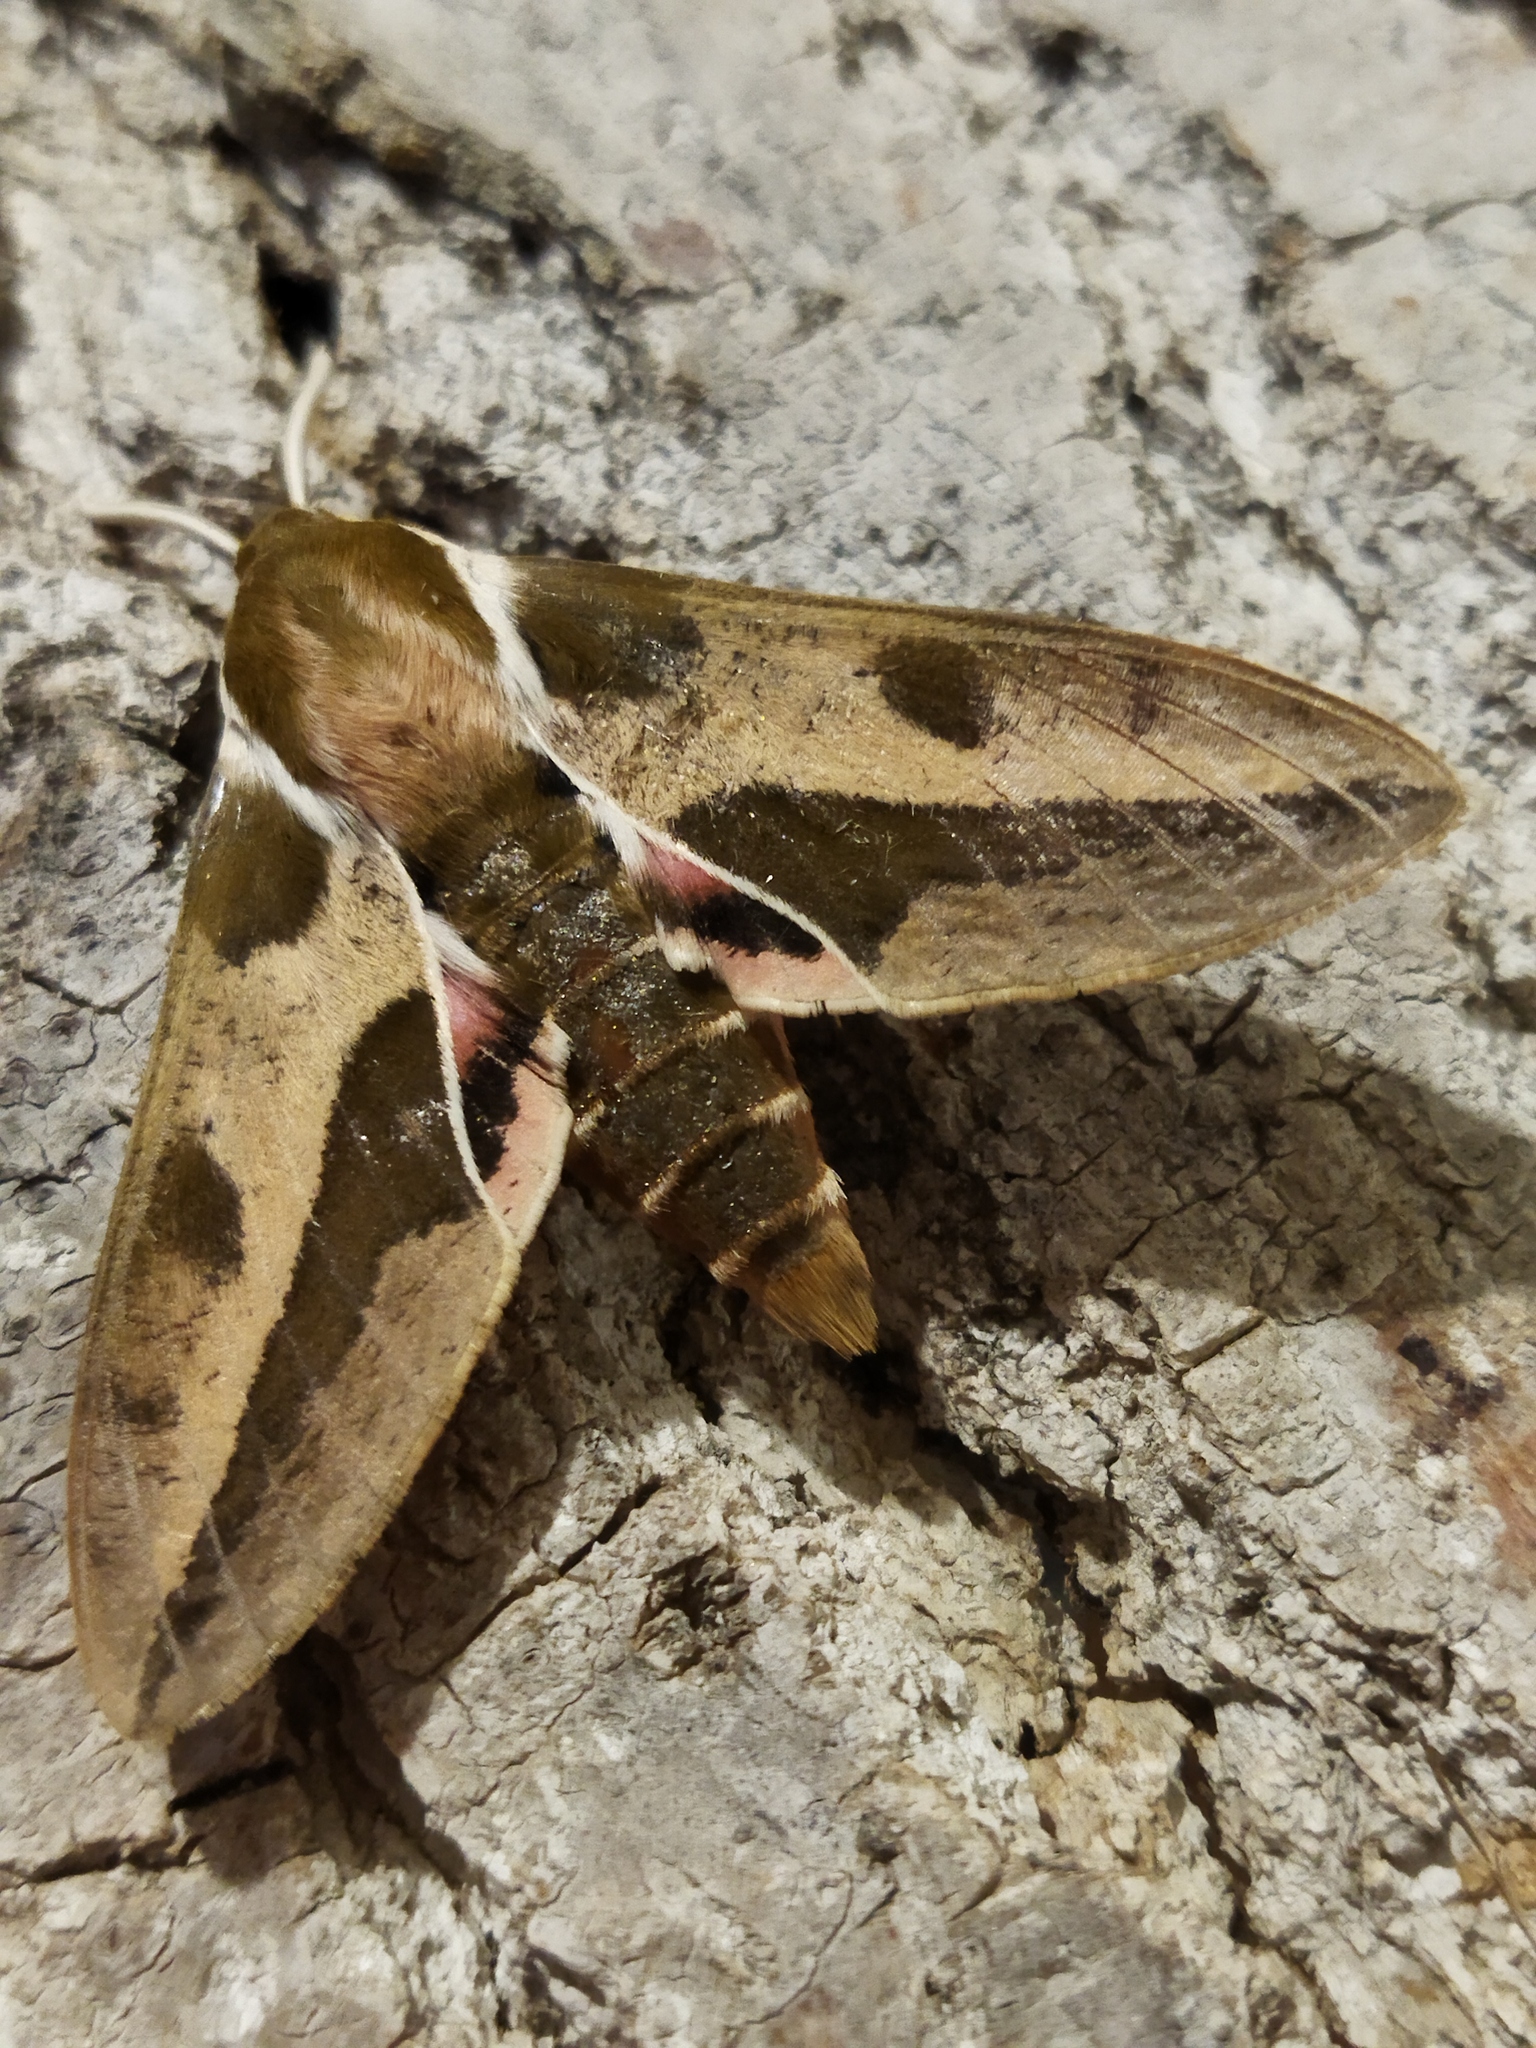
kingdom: Animalia
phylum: Arthropoda
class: Insecta
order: Lepidoptera
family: Sphingidae
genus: Hyles
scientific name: Hyles euphorbiae
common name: Spurge hawk-moth
